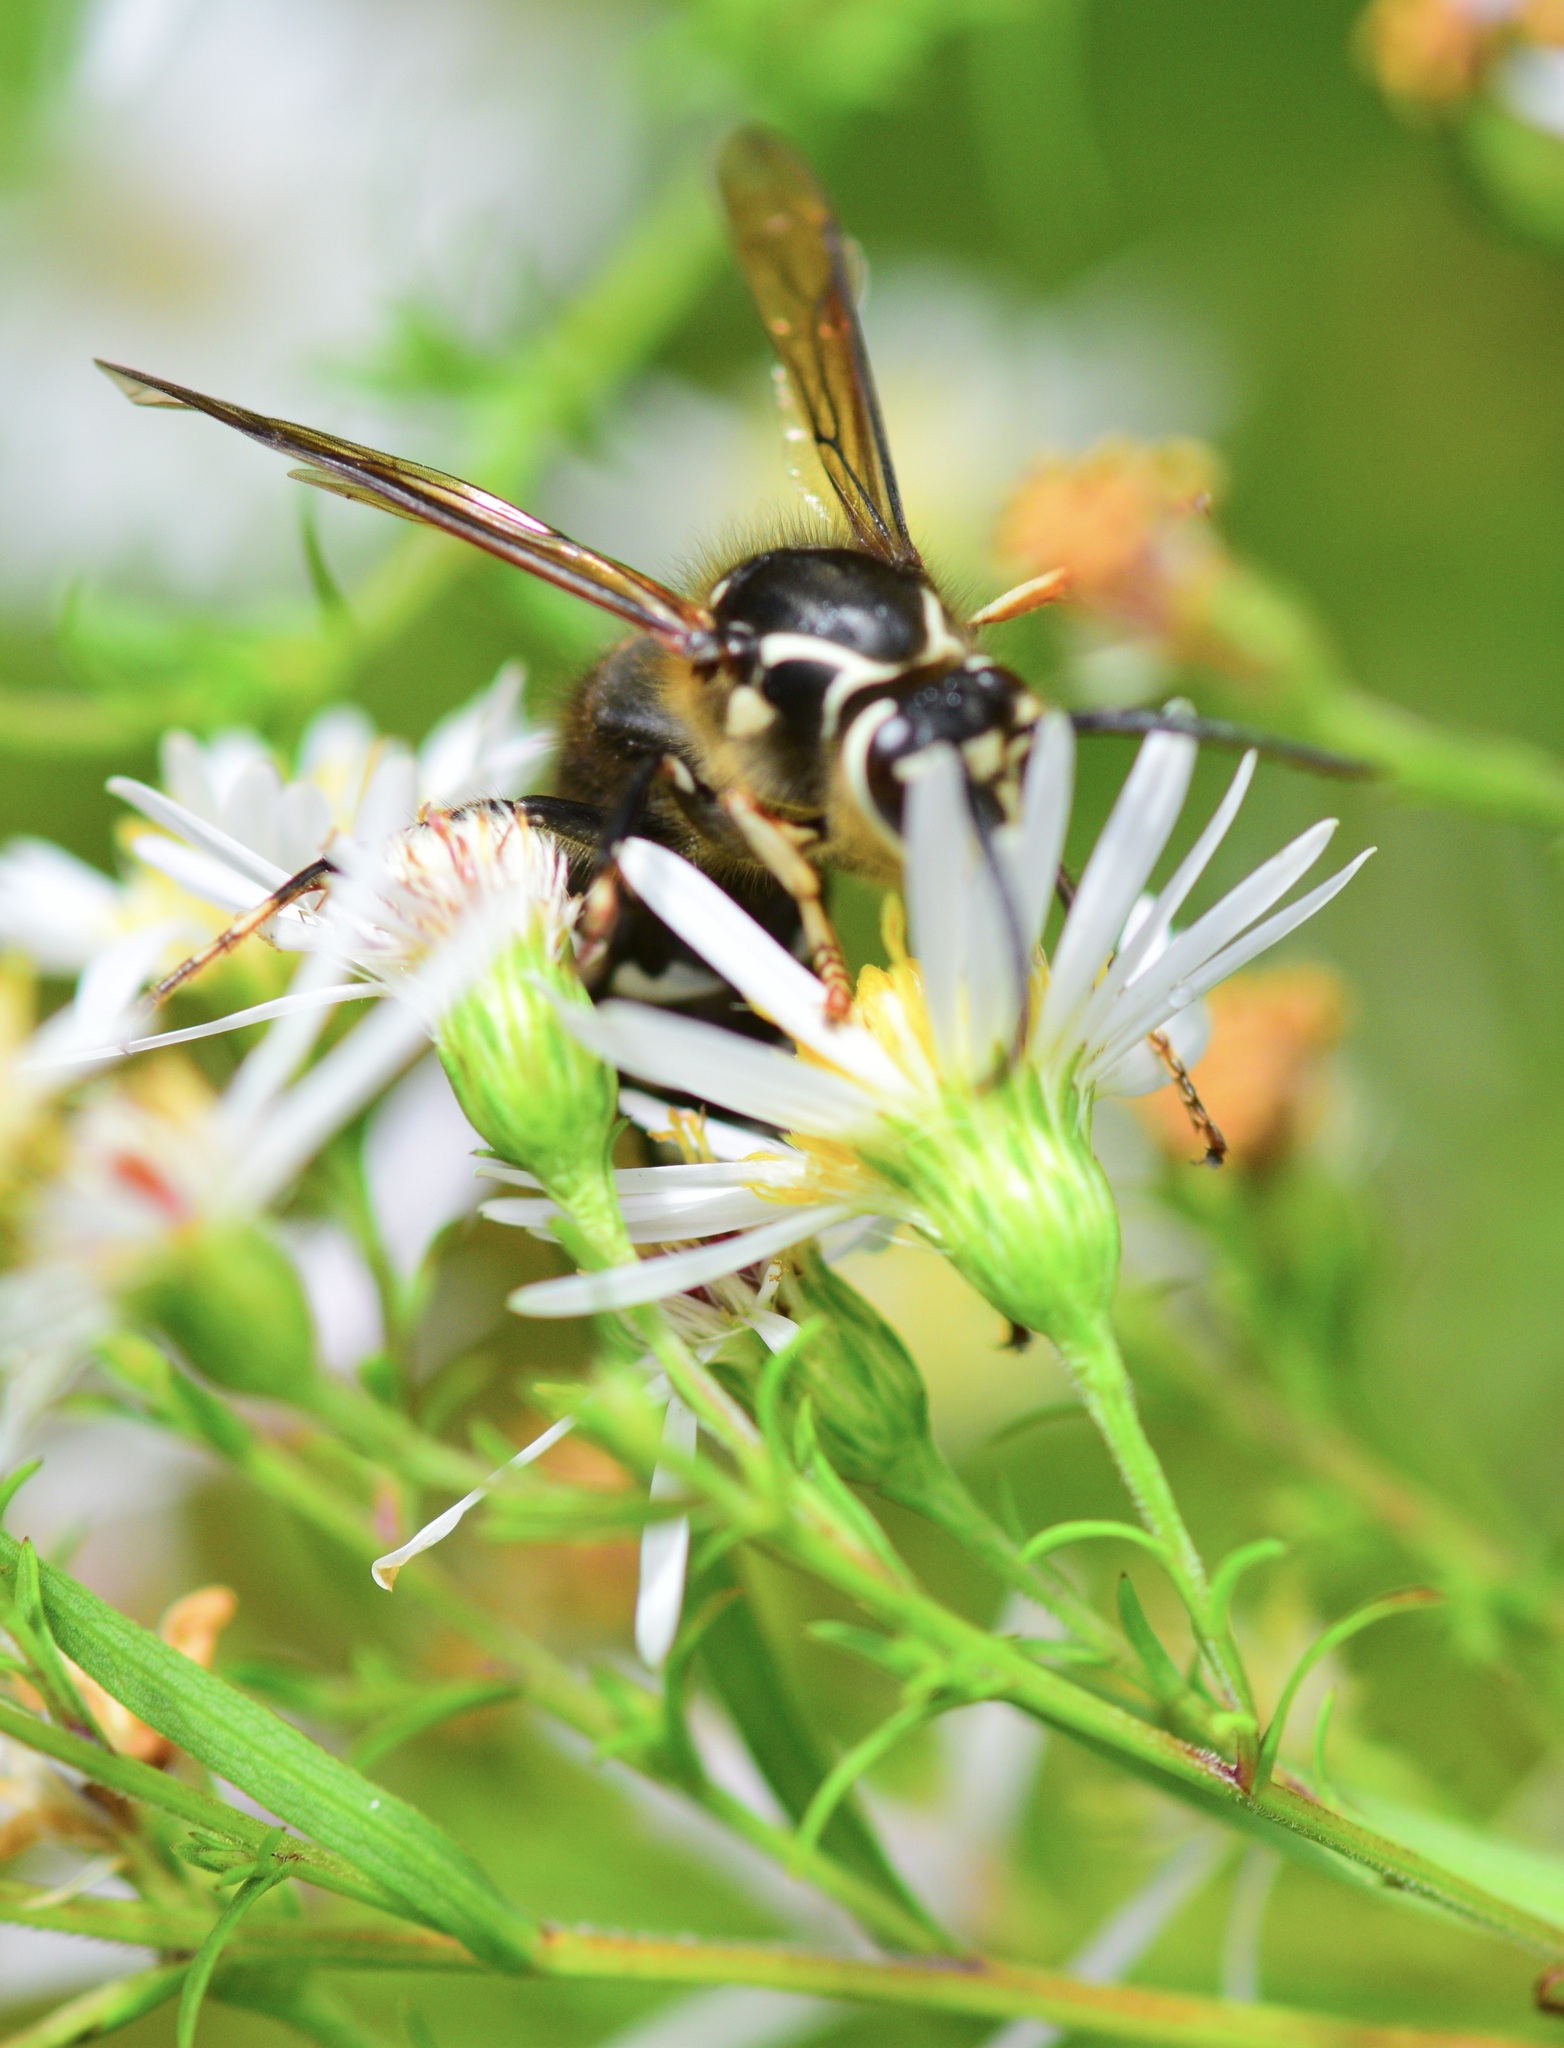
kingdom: Animalia
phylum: Arthropoda
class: Insecta
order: Hymenoptera
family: Vespidae
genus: Dolichovespula
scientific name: Dolichovespula maculata
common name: Bald-faced hornet
